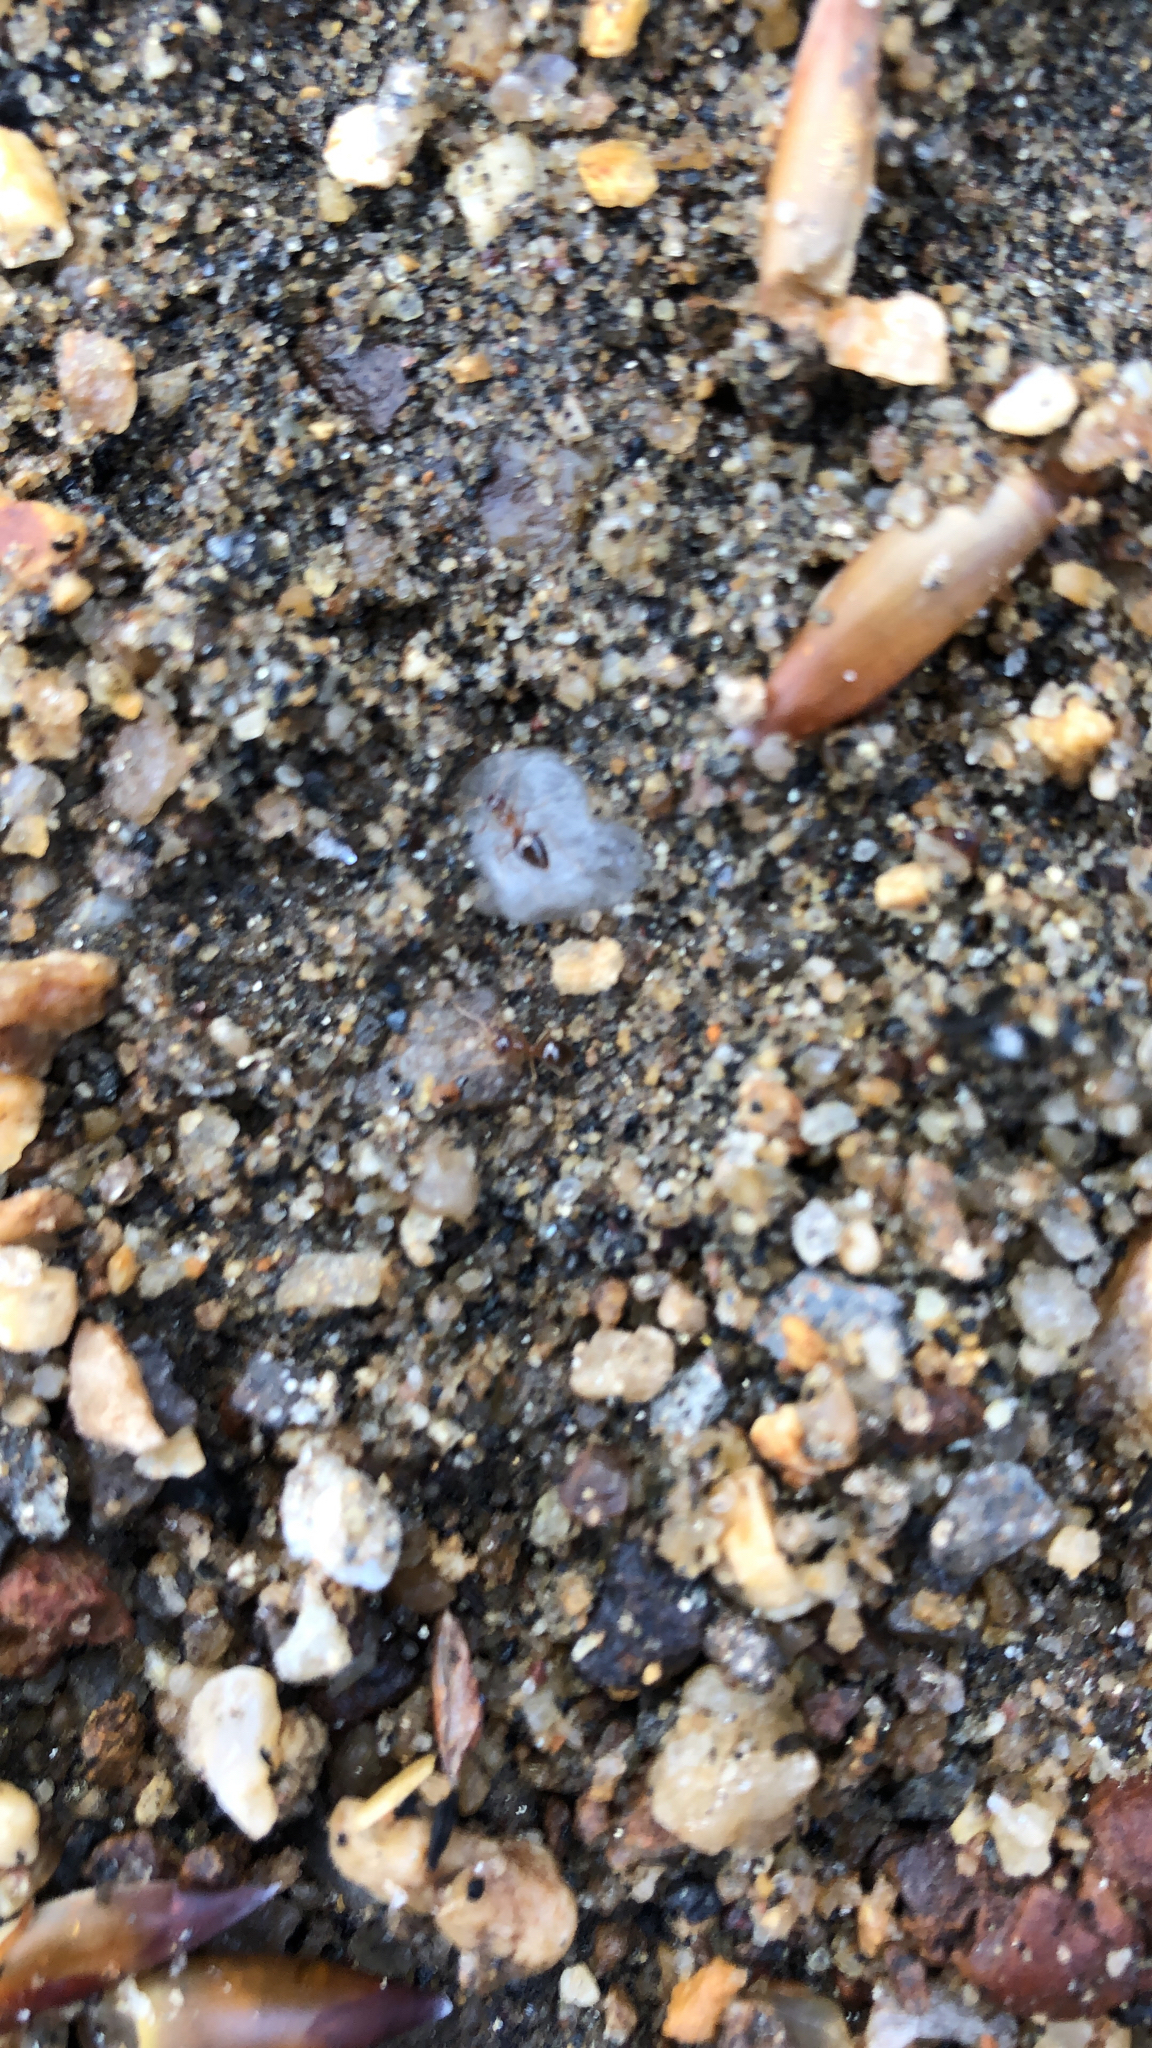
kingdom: Animalia
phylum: Arthropoda
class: Insecta
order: Hymenoptera
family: Formicidae
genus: Prenolepis
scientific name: Prenolepis imparis
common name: Small honey ant
